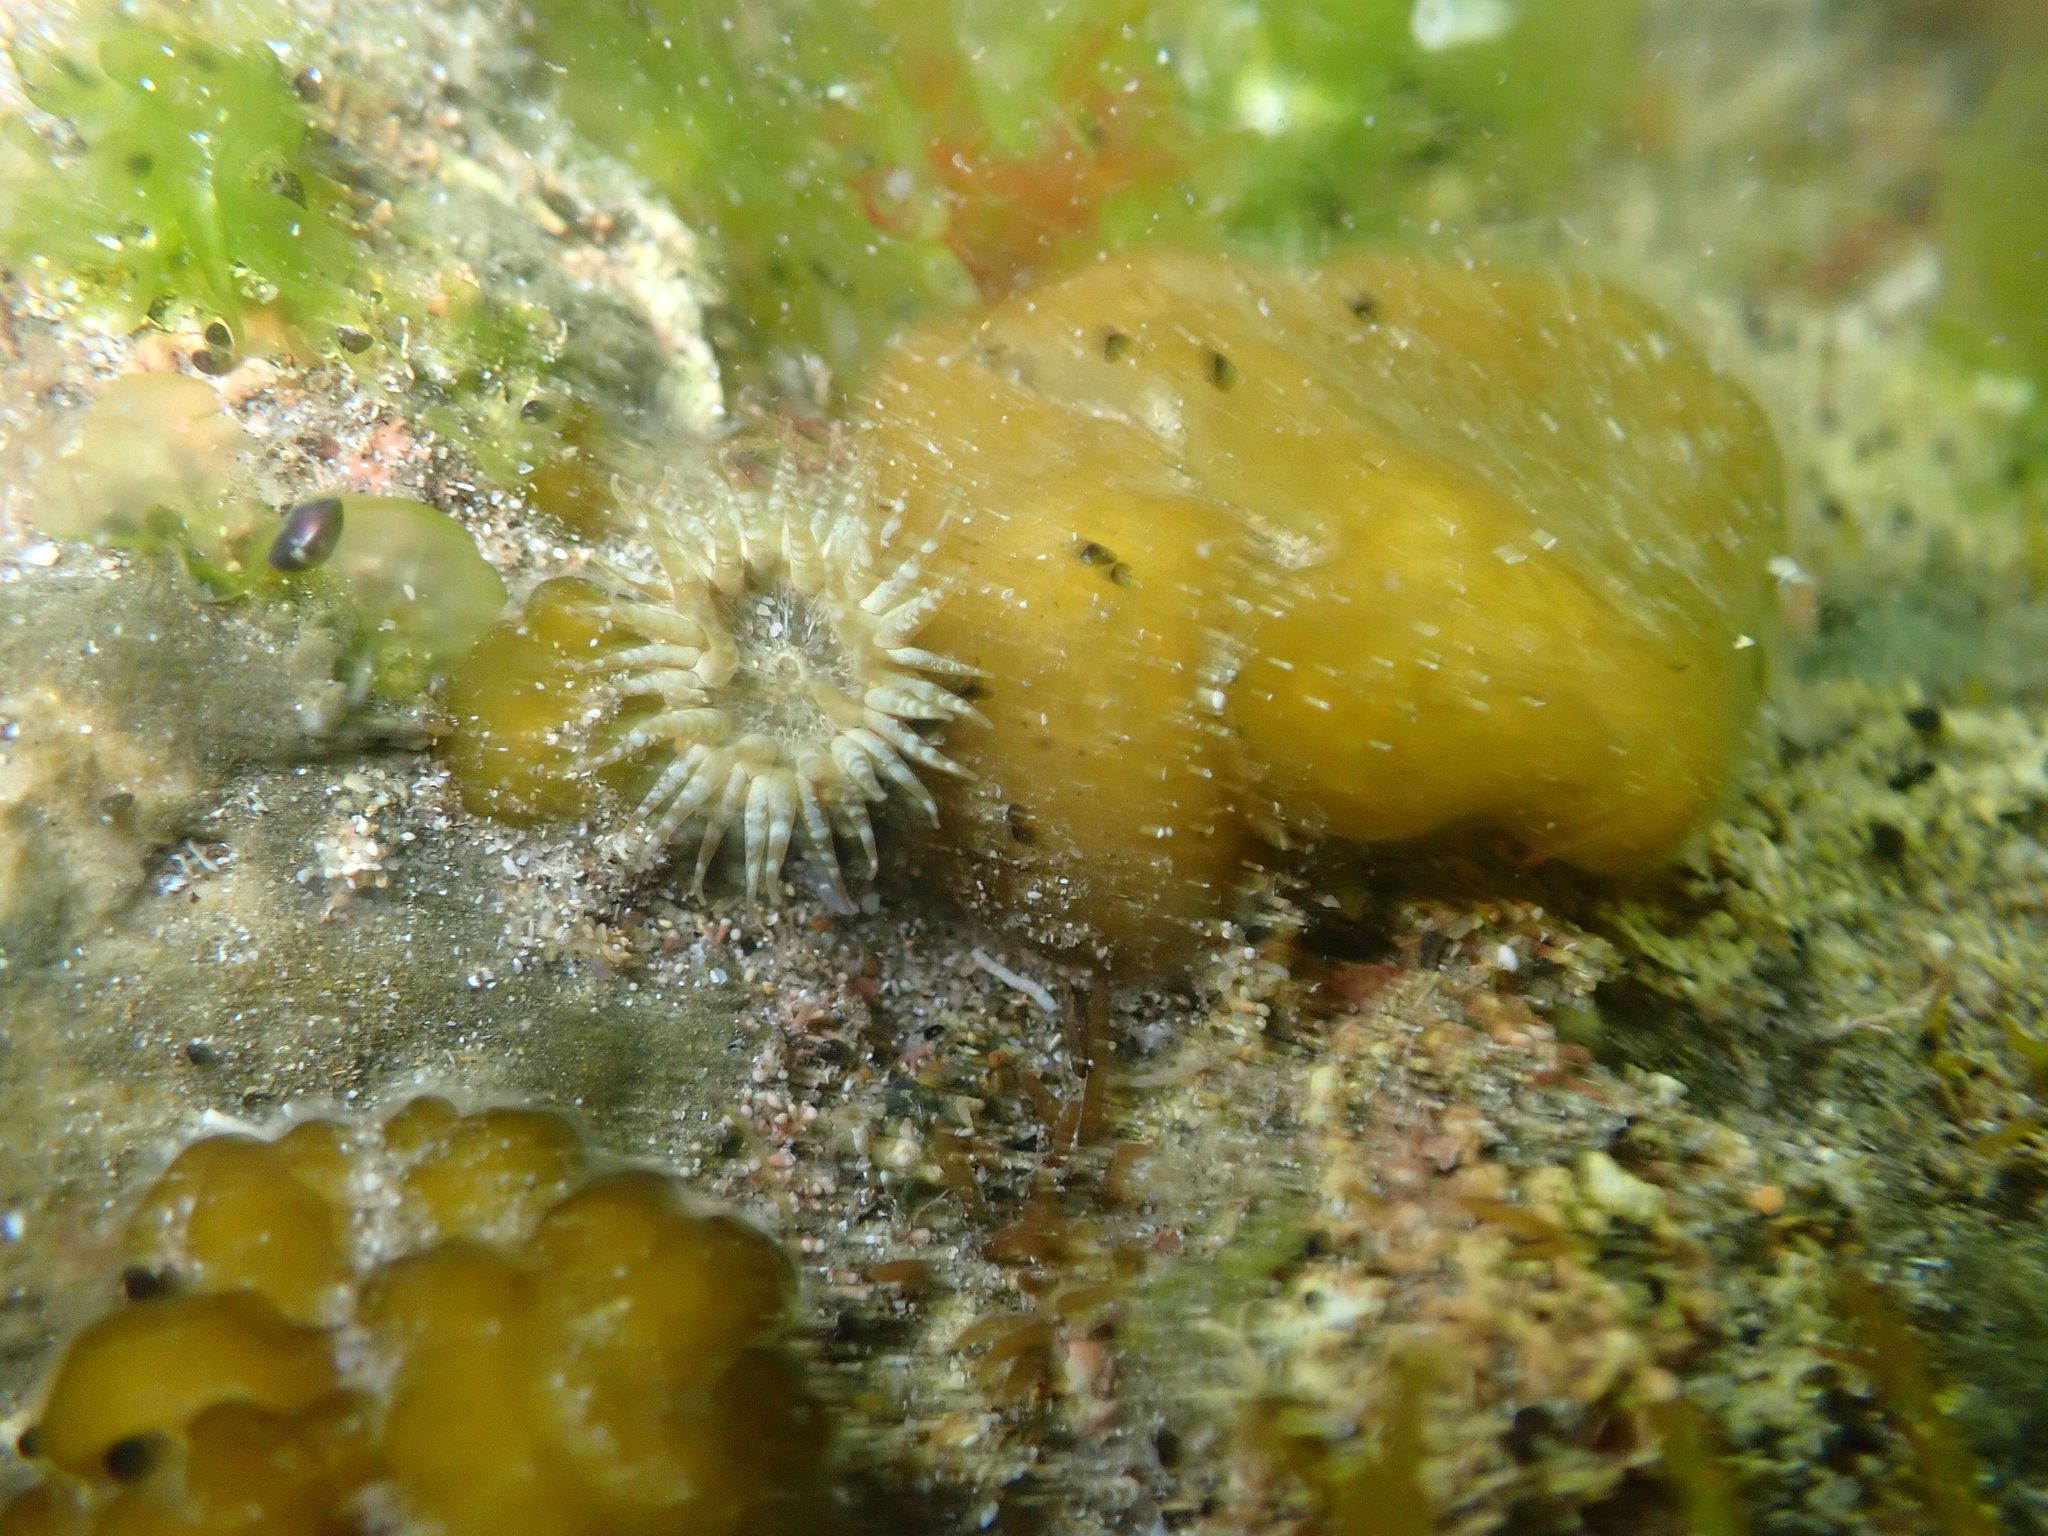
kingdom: Animalia
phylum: Cnidaria
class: Anthozoa
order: Actiniaria
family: Actiniidae
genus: Anthopleura
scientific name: Anthopleura hermaphroditica
